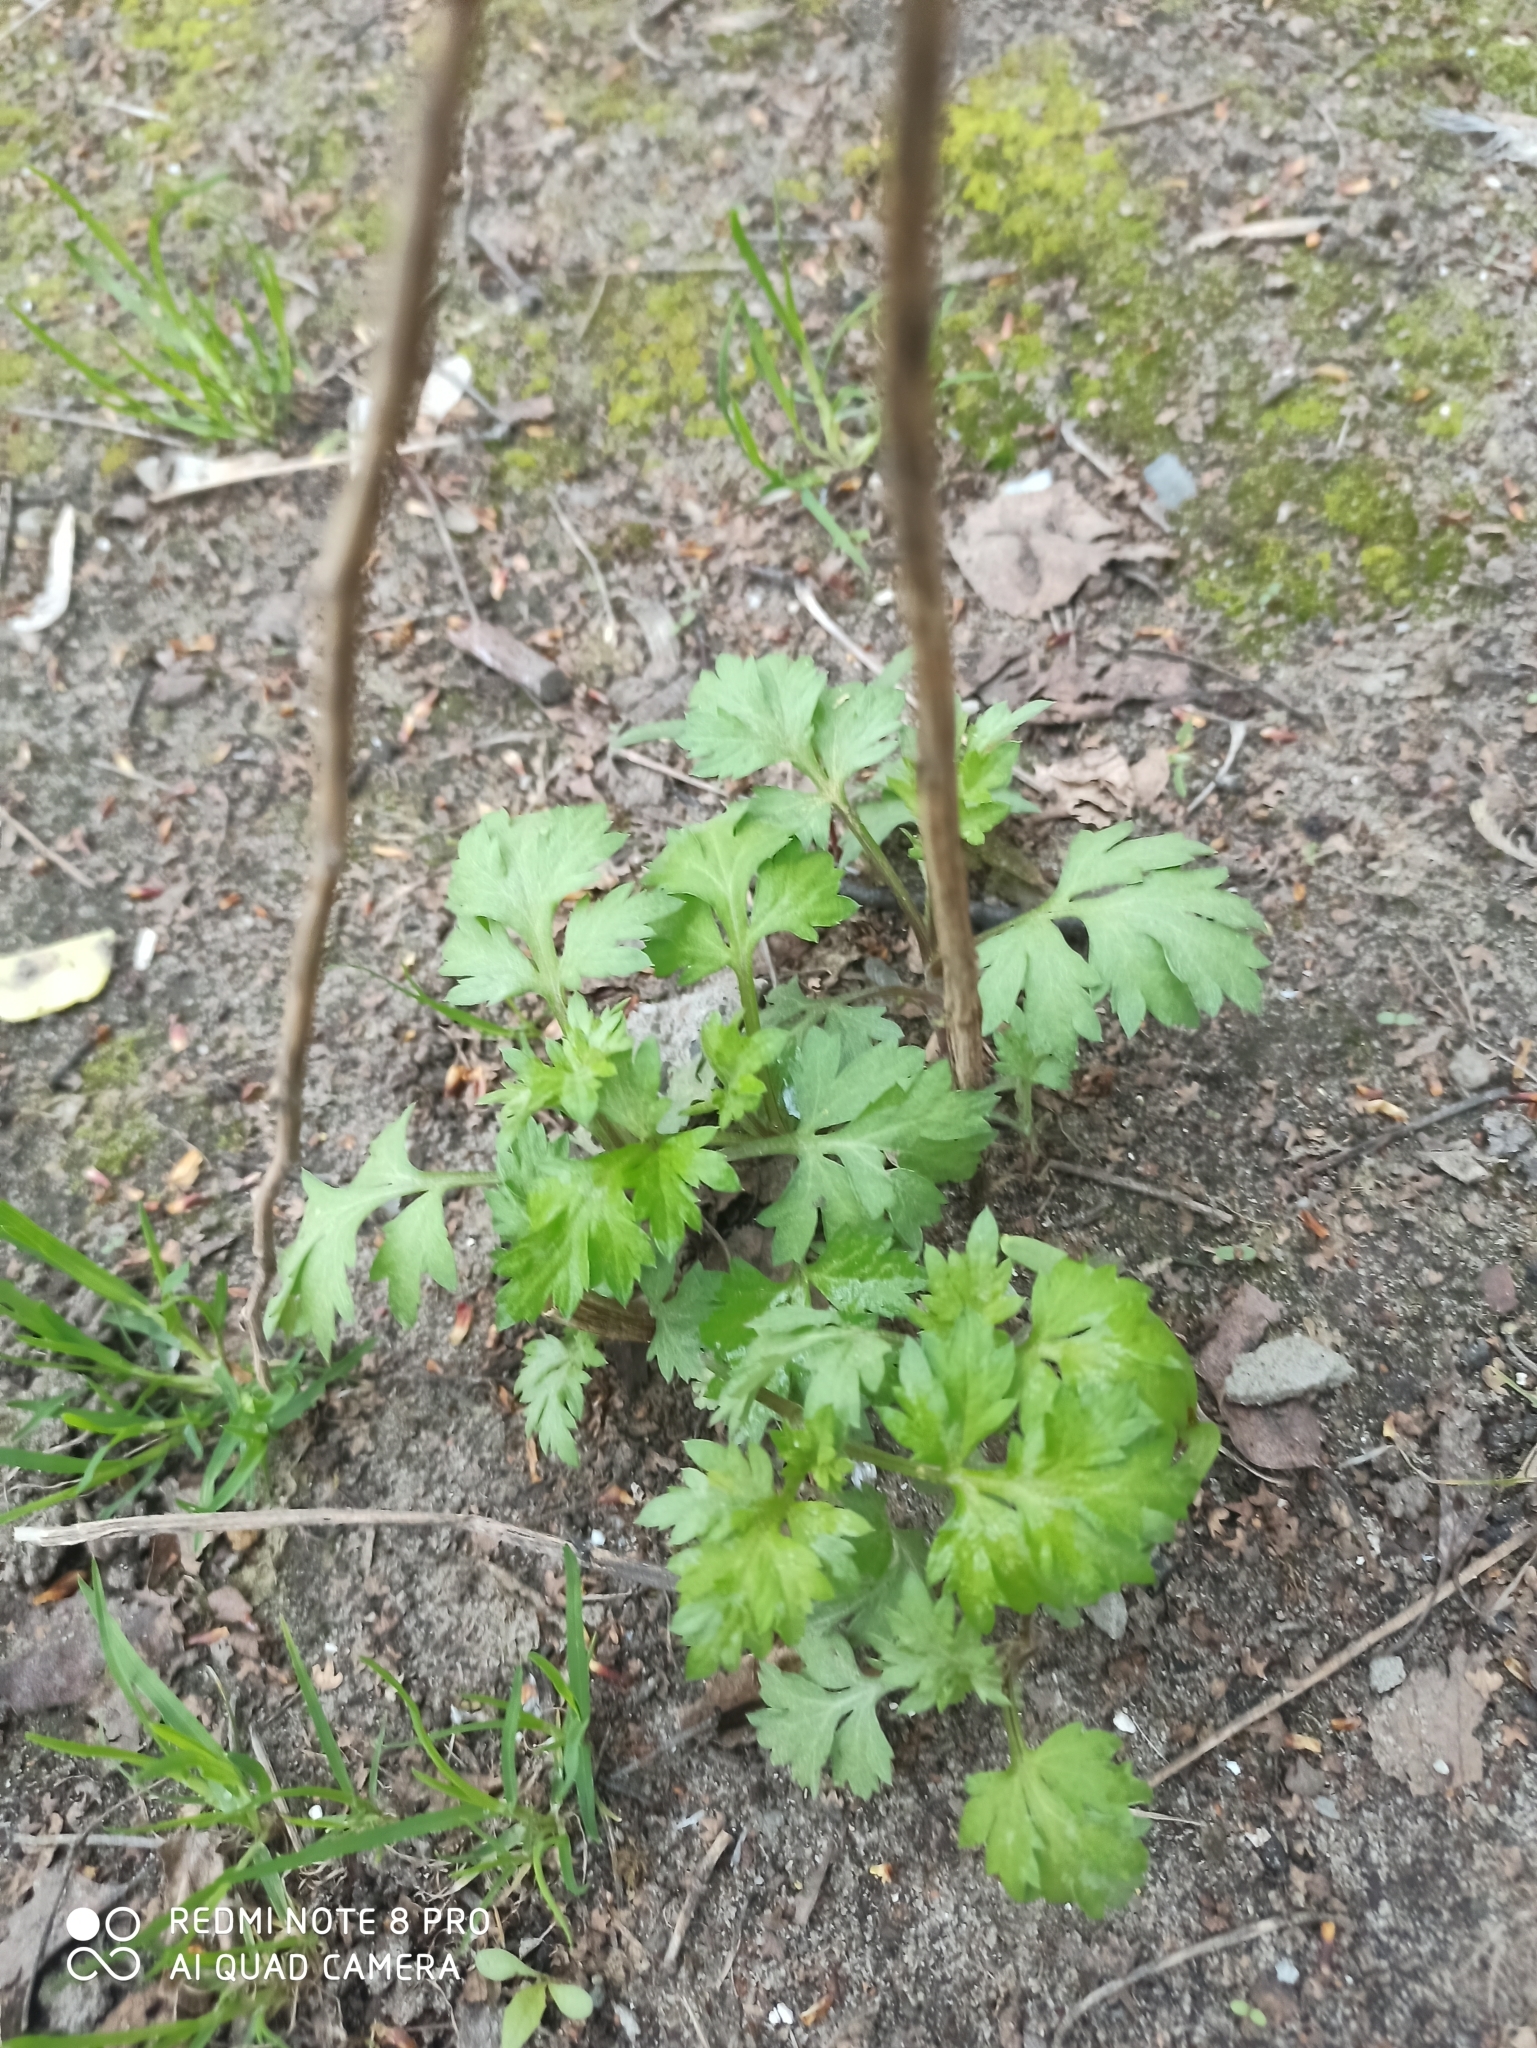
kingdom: Plantae
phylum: Tracheophyta
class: Magnoliopsida
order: Asterales
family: Asteraceae
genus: Artemisia
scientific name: Artemisia vulgaris
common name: Mugwort
